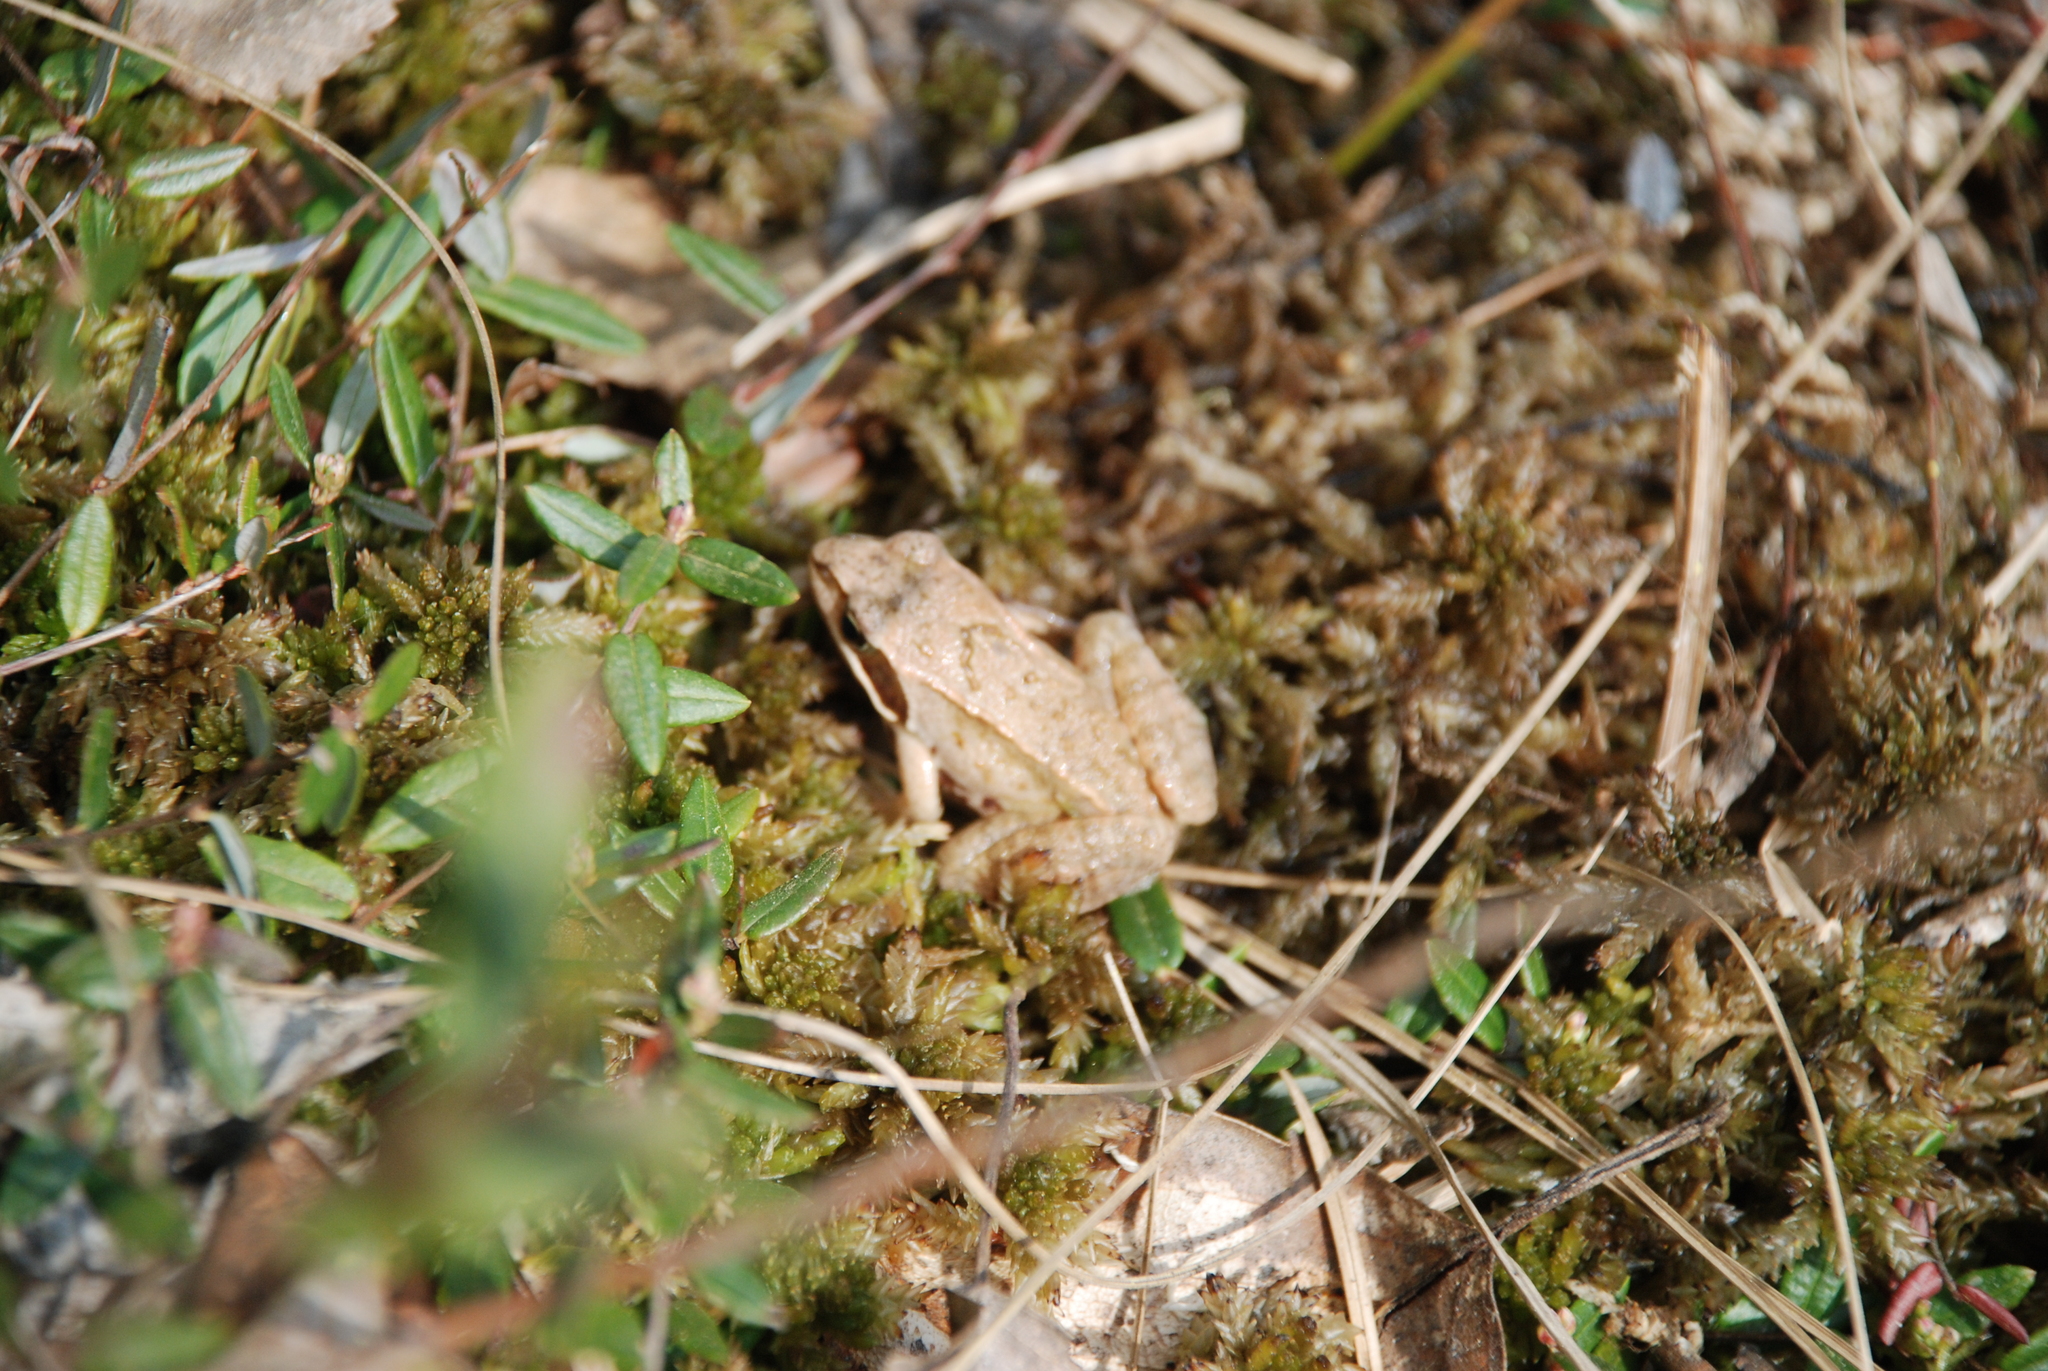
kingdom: Animalia
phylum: Chordata
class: Amphibia
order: Anura
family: Ranidae
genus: Rana
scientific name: Rana arvalis
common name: Moor frog
